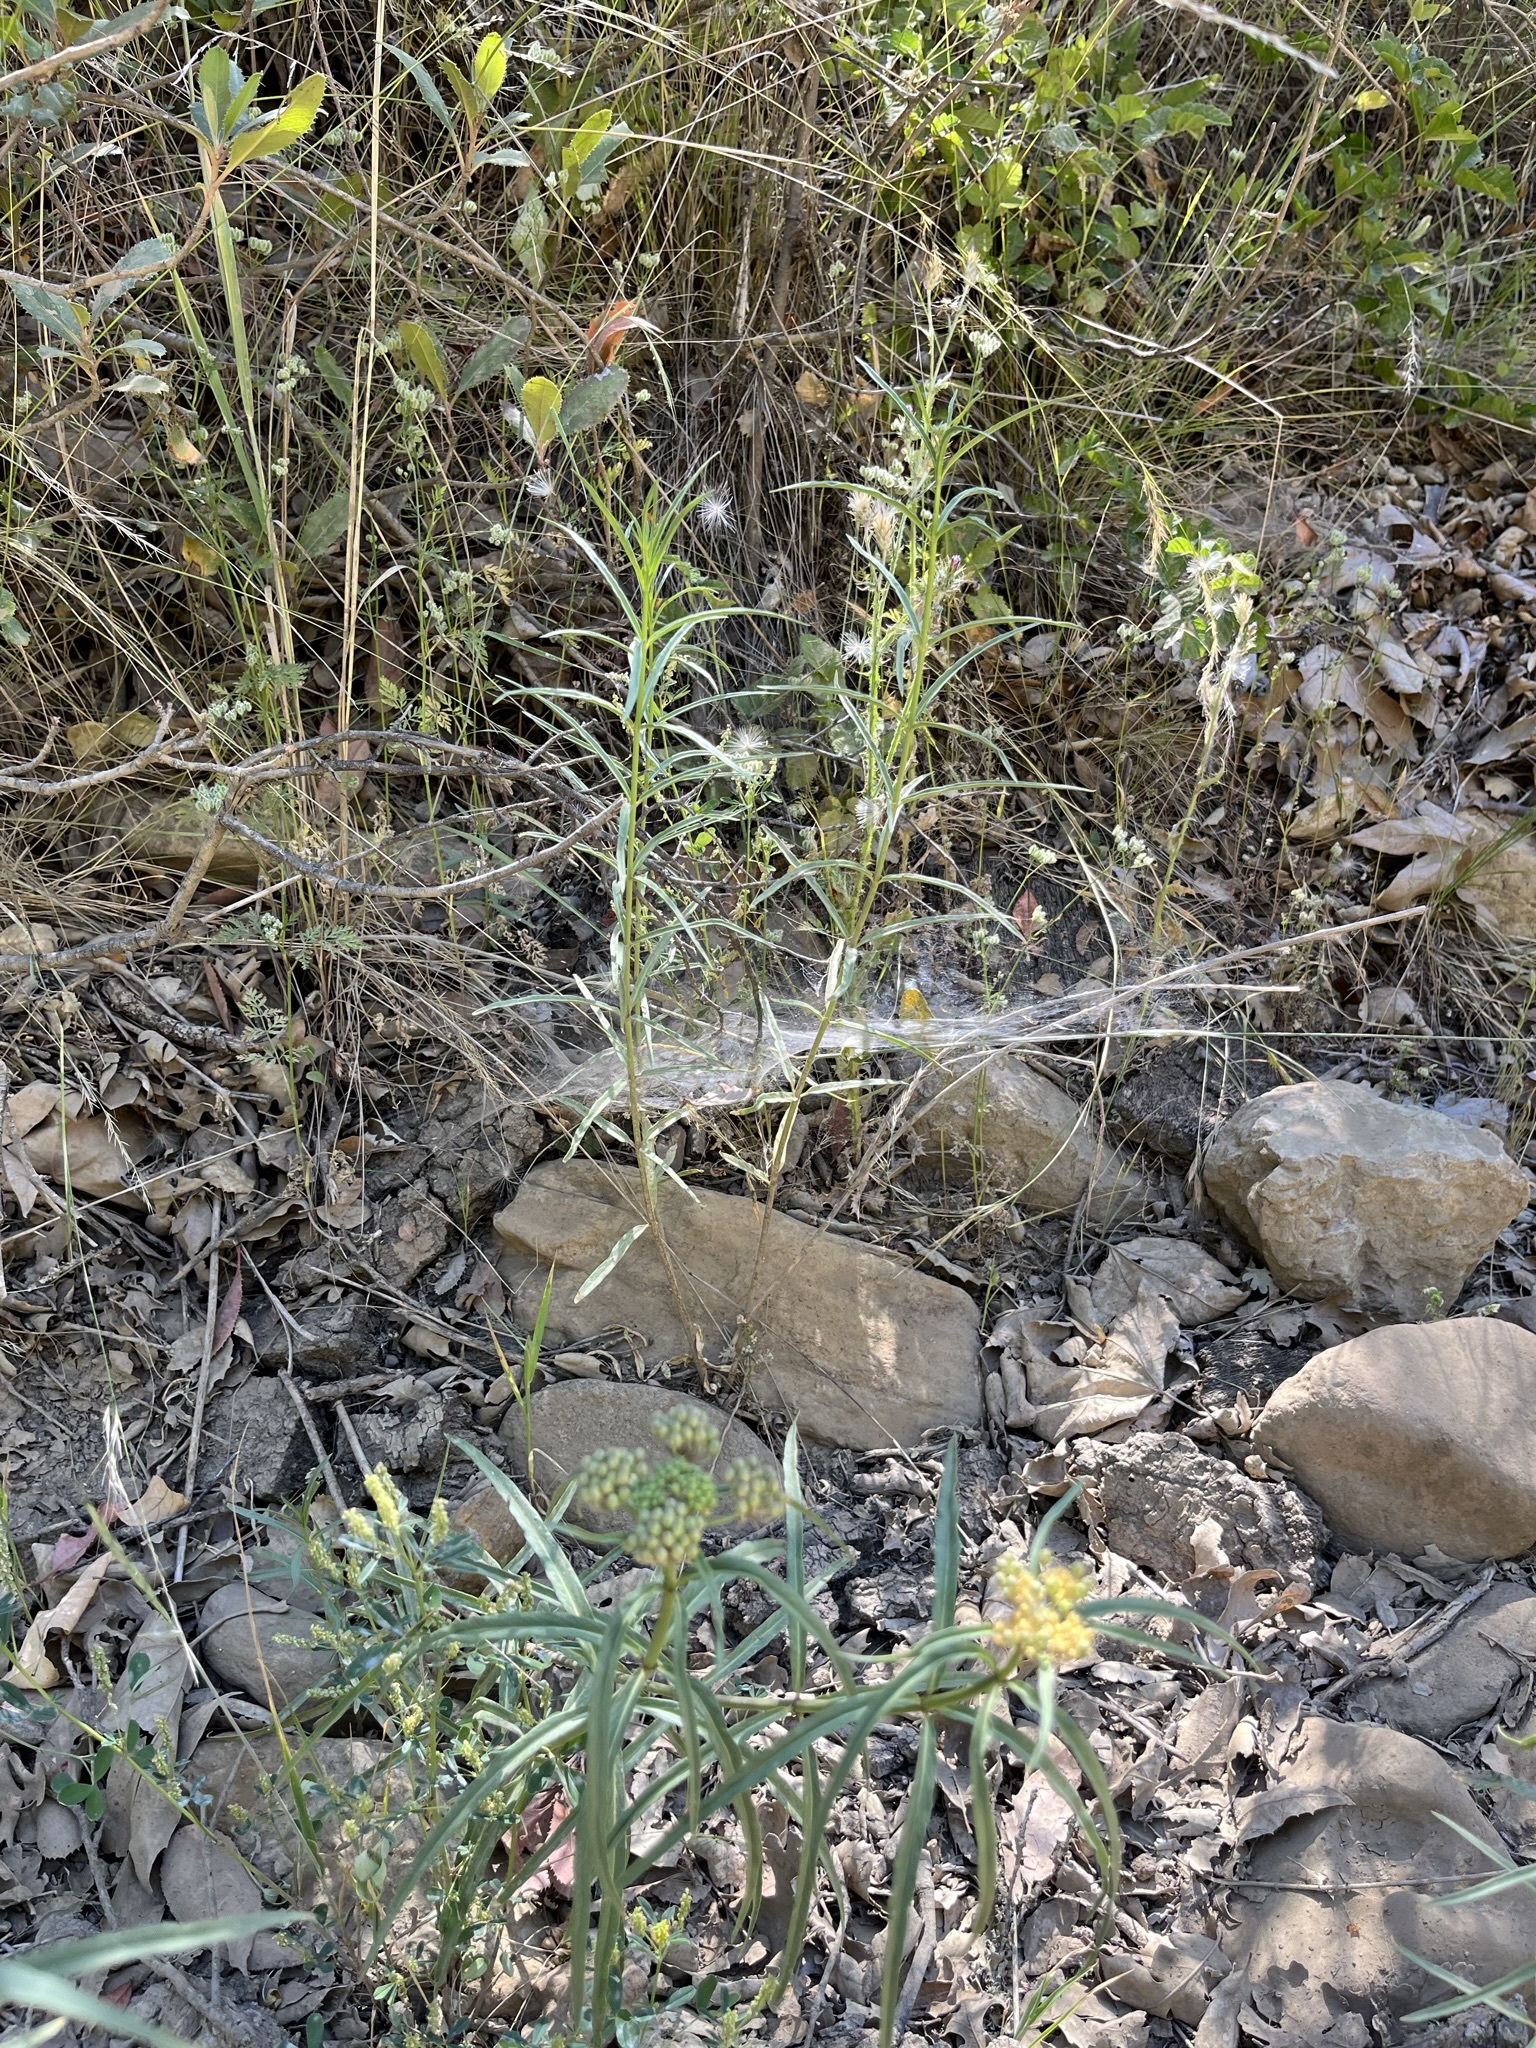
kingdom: Plantae
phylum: Tracheophyta
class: Magnoliopsida
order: Gentianales
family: Apocynaceae
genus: Asclepias
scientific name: Asclepias fascicularis
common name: Mexican milkweed
